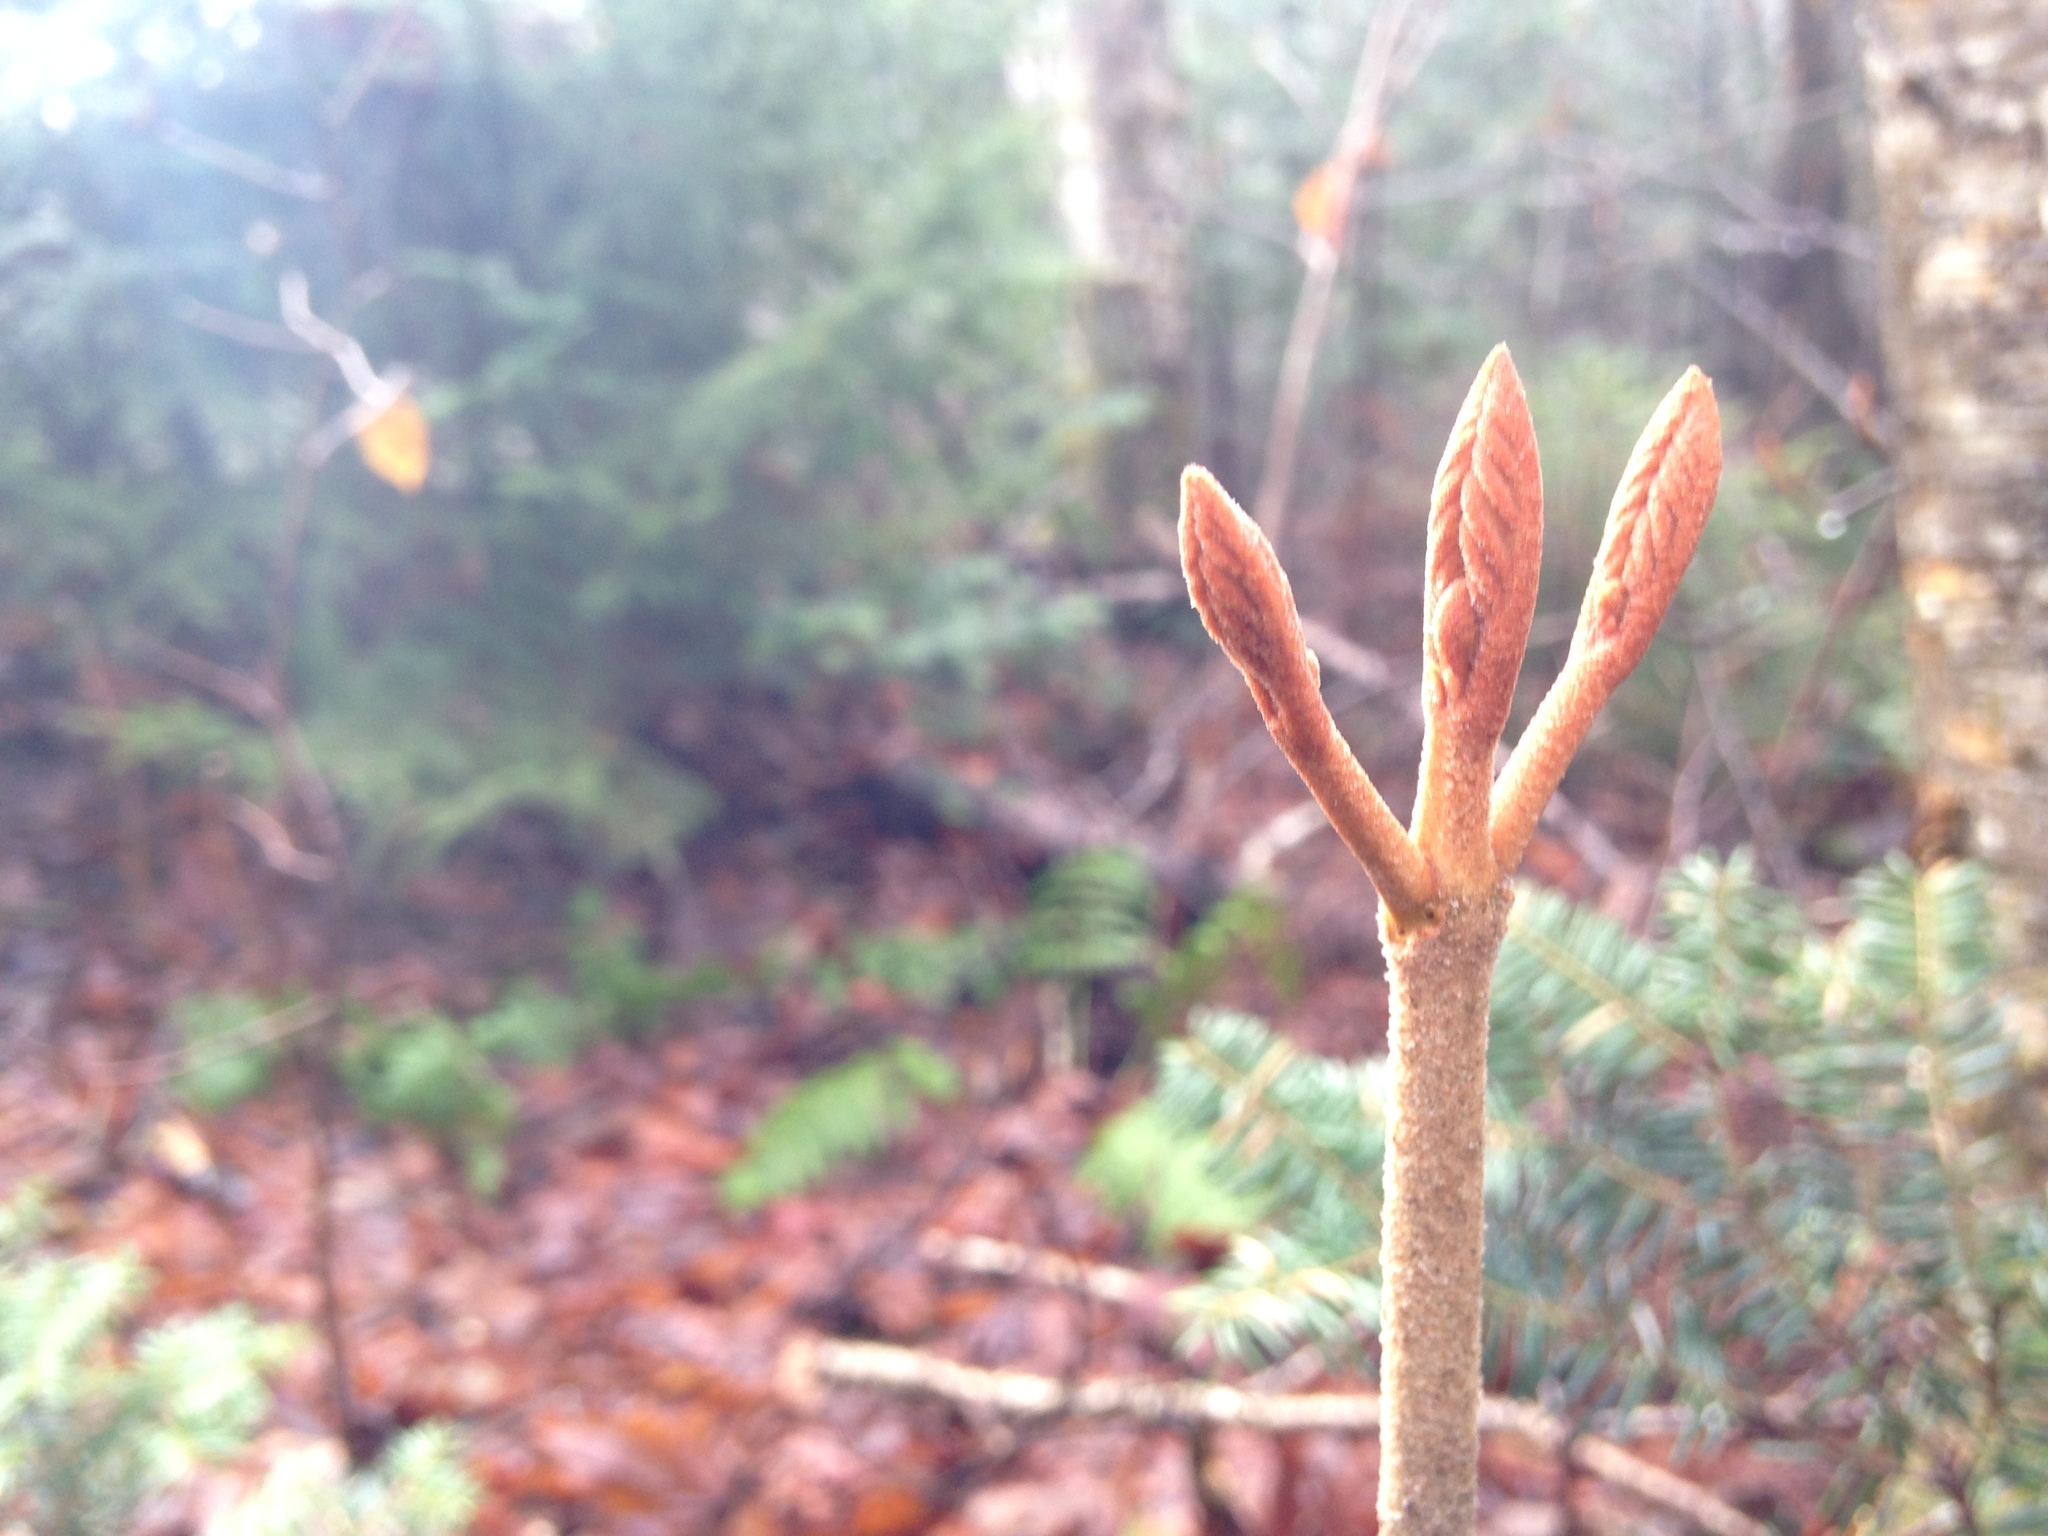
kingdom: Plantae
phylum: Tracheophyta
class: Magnoliopsida
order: Dipsacales
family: Viburnaceae
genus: Viburnum
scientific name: Viburnum lantanoides
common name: Hobblebush
